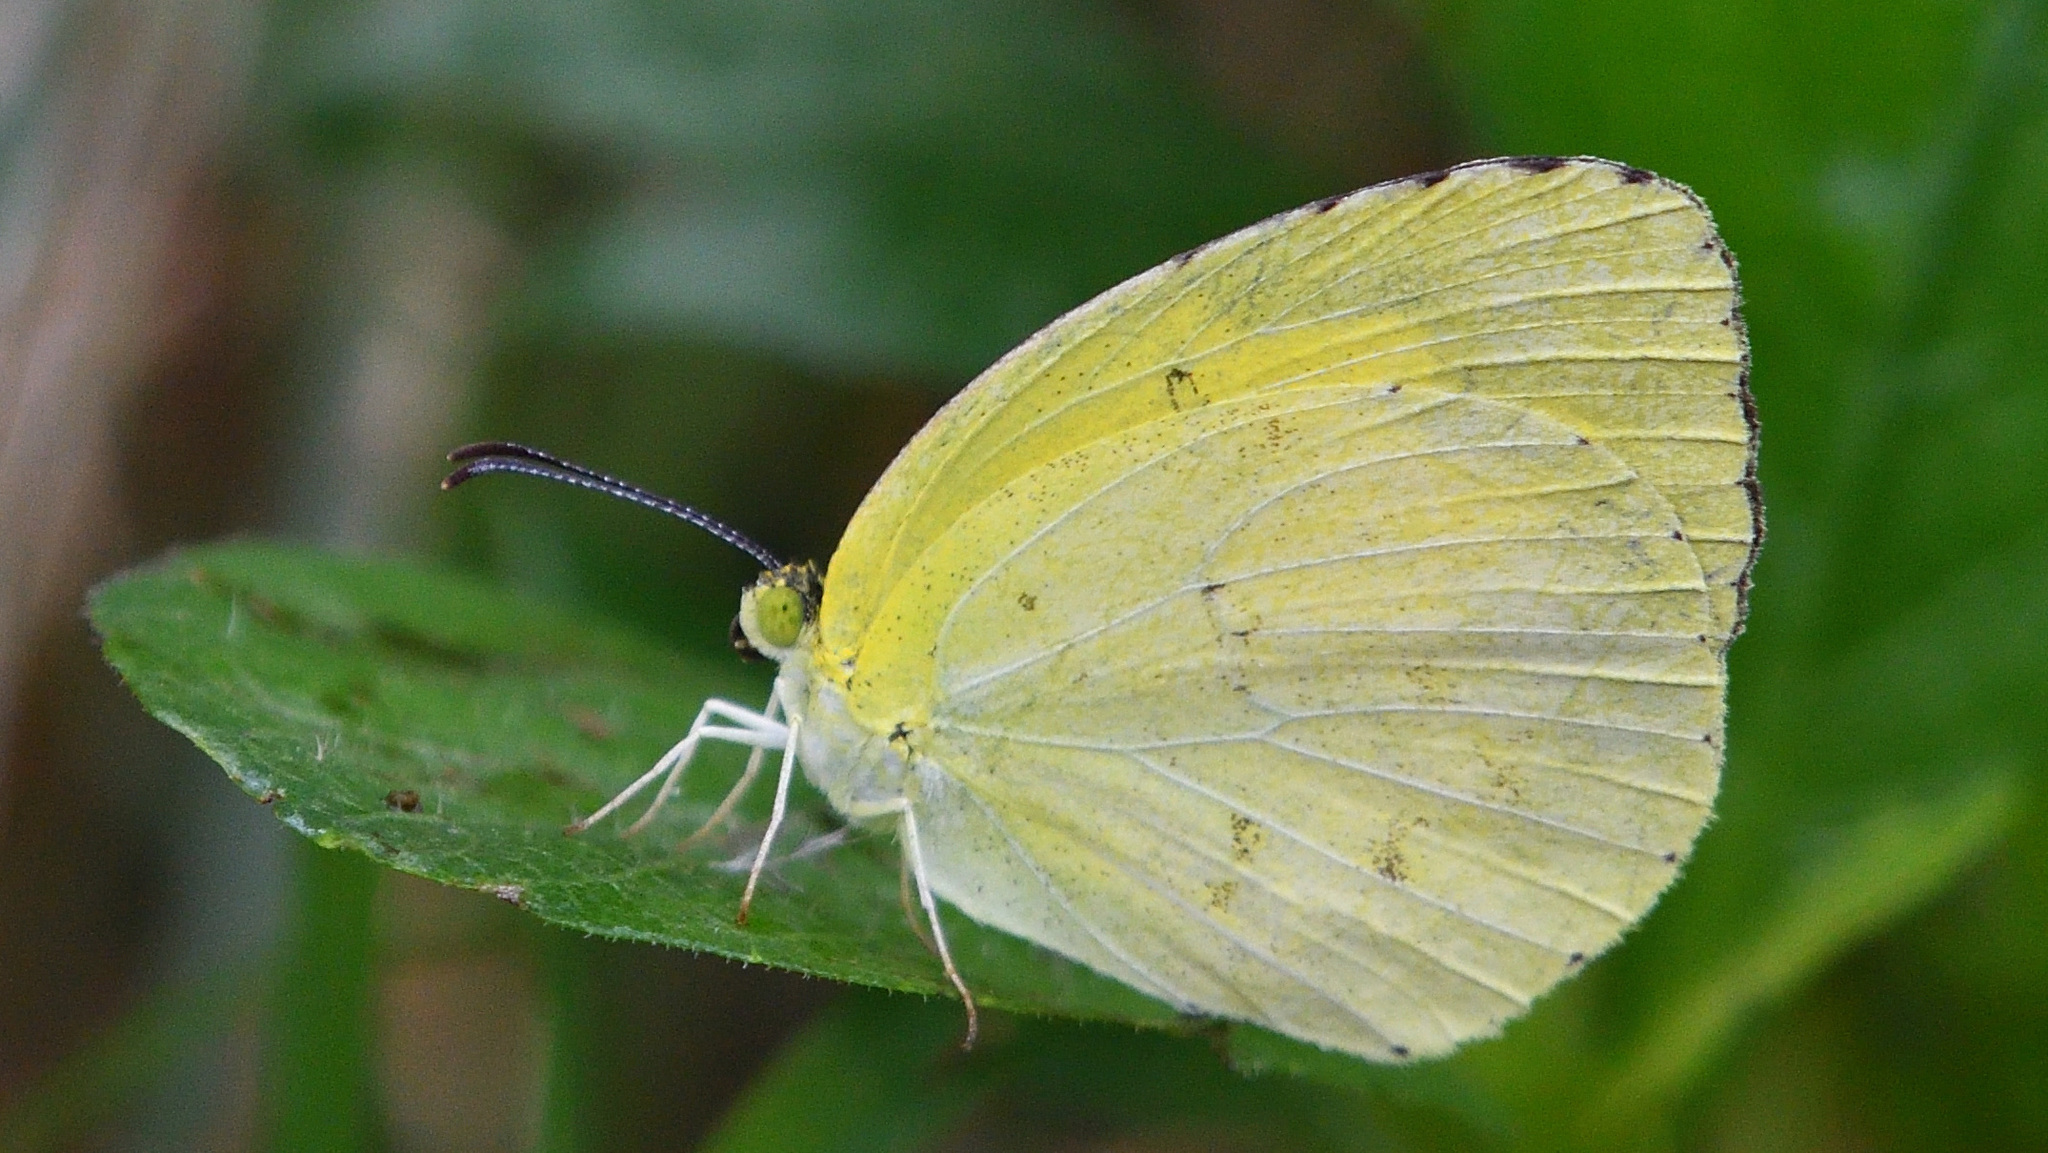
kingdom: Animalia
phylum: Arthropoda
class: Insecta
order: Lepidoptera
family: Pieridae
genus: Eurema
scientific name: Eurema hecabe
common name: Pale grass yellow
